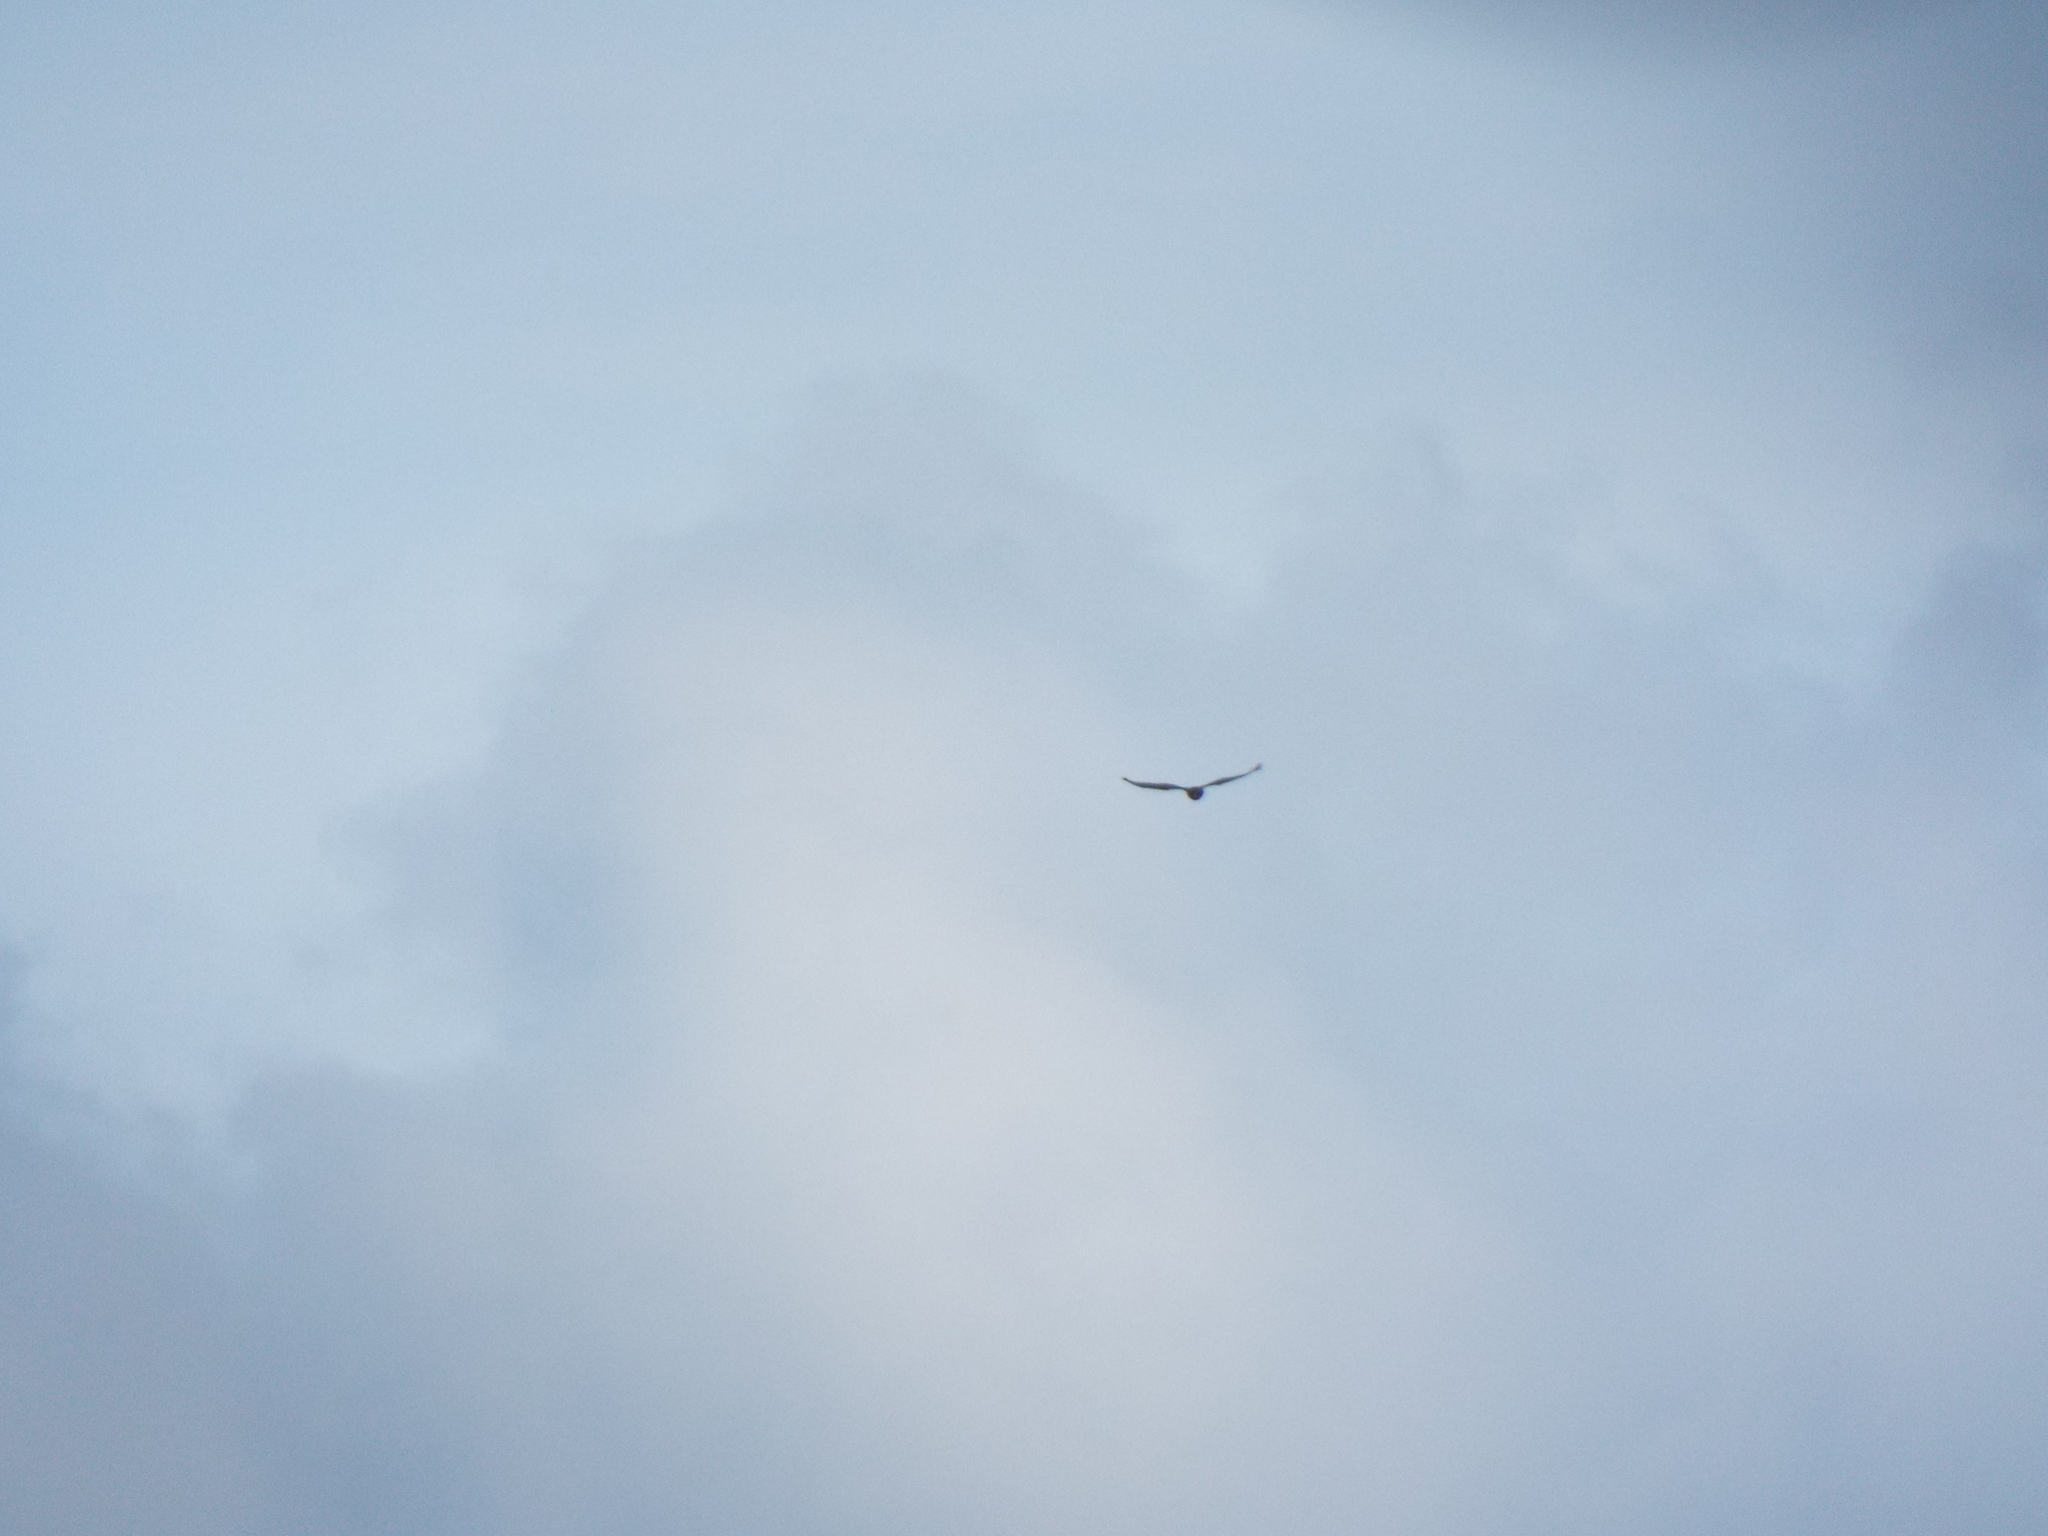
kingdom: Animalia
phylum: Chordata
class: Aves
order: Accipitriformes
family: Accipitridae
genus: Buteo
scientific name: Buteo buteo
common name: Common buzzard
